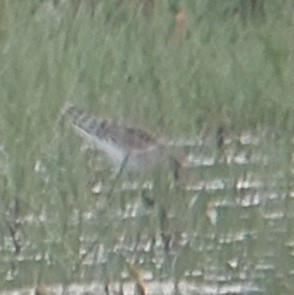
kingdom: Animalia
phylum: Chordata
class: Aves
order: Charadriiformes
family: Scolopacidae
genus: Calidris
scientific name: Calidris pugnax
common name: Ruff
